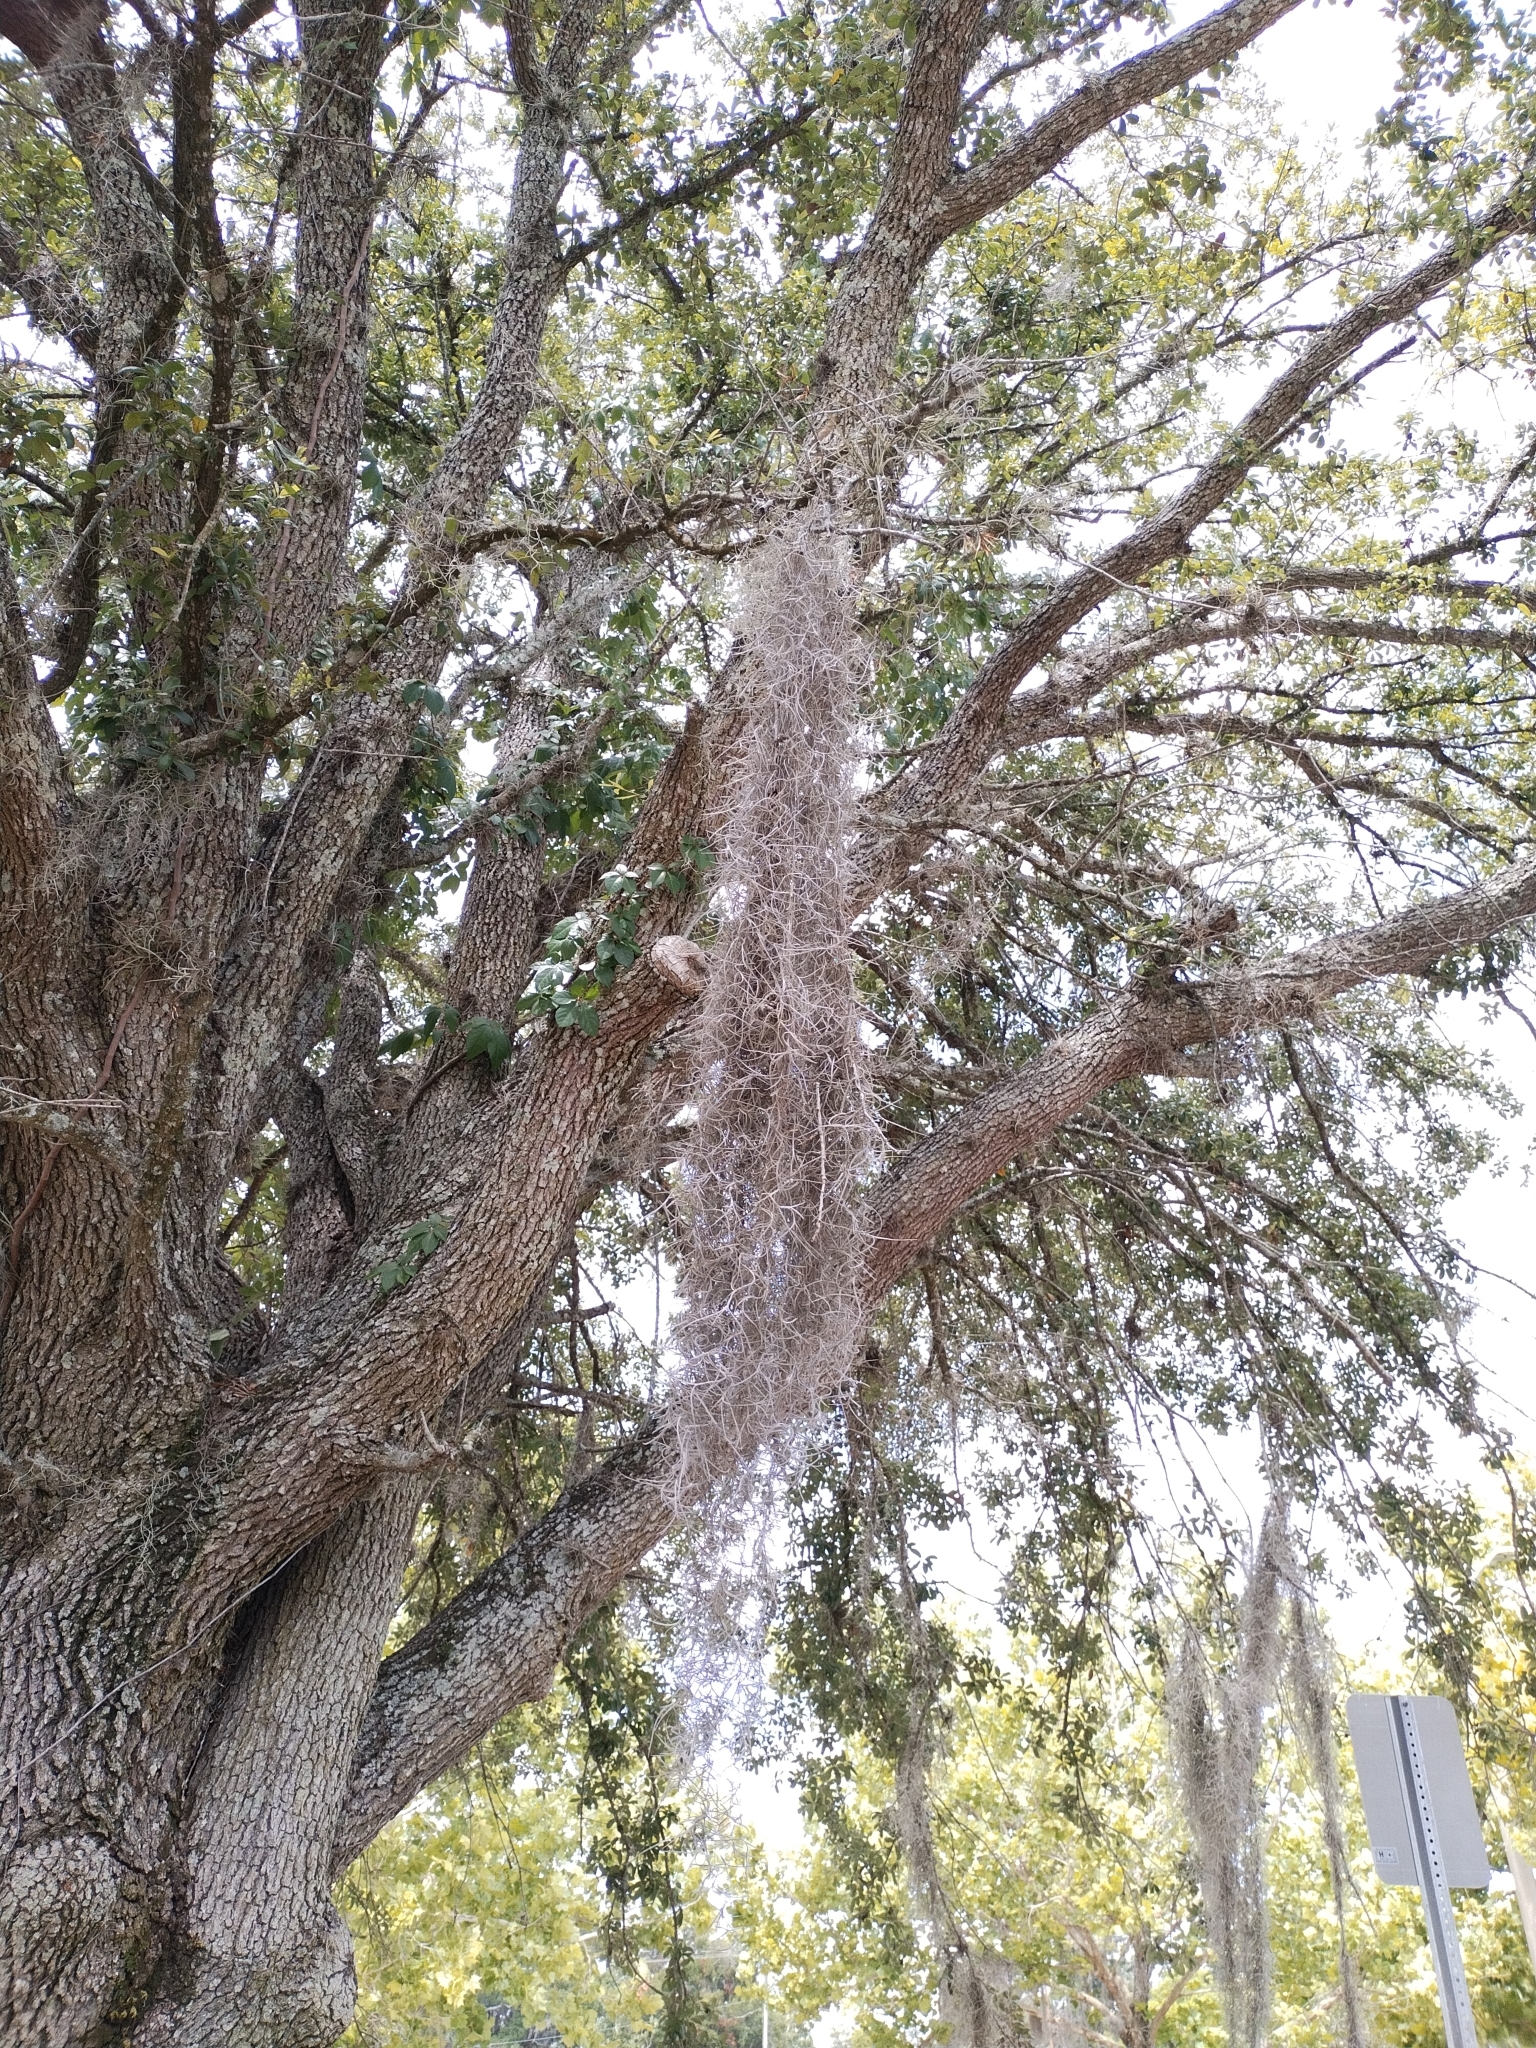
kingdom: Plantae
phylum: Tracheophyta
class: Liliopsida
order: Poales
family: Bromeliaceae
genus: Tillandsia
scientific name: Tillandsia usneoides
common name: Spanish moss
